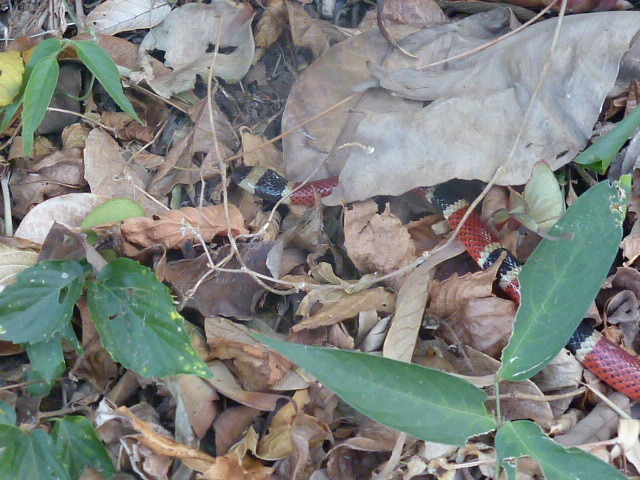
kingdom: Animalia
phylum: Chordata
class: Squamata
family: Elapidae
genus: Micrurus
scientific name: Micrurus nigrocinctus
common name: Babaspul [babaspul]
